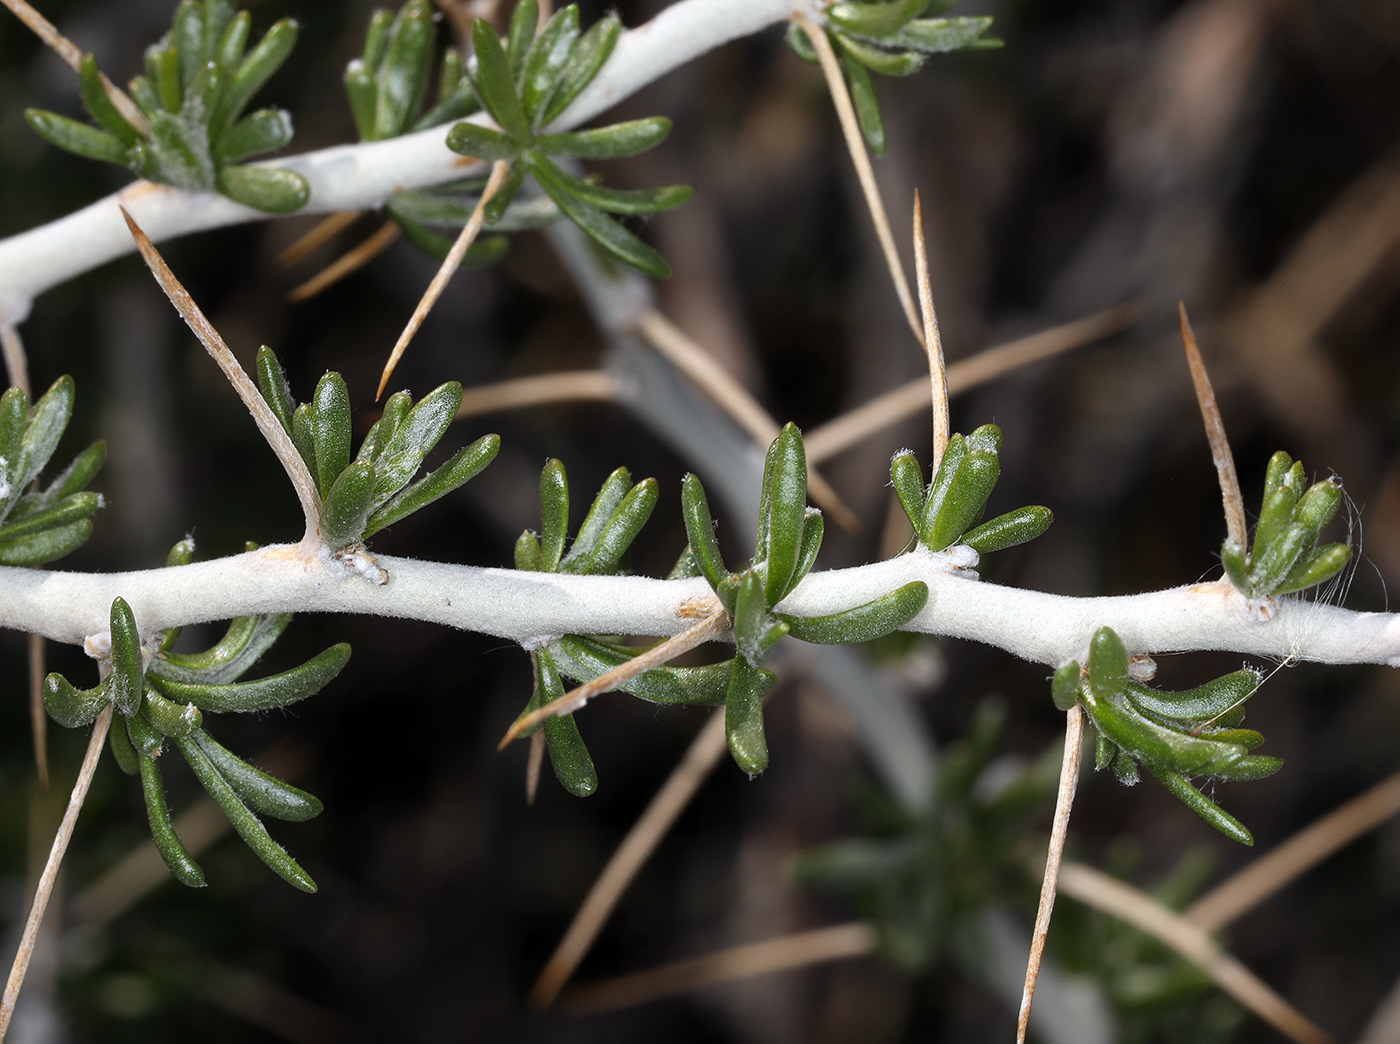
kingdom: Plantae
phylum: Tracheophyta
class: Magnoliopsida
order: Asterales
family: Asteraceae
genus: Tetradymia
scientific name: Tetradymia axillaris
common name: Long-spine horsebrush
